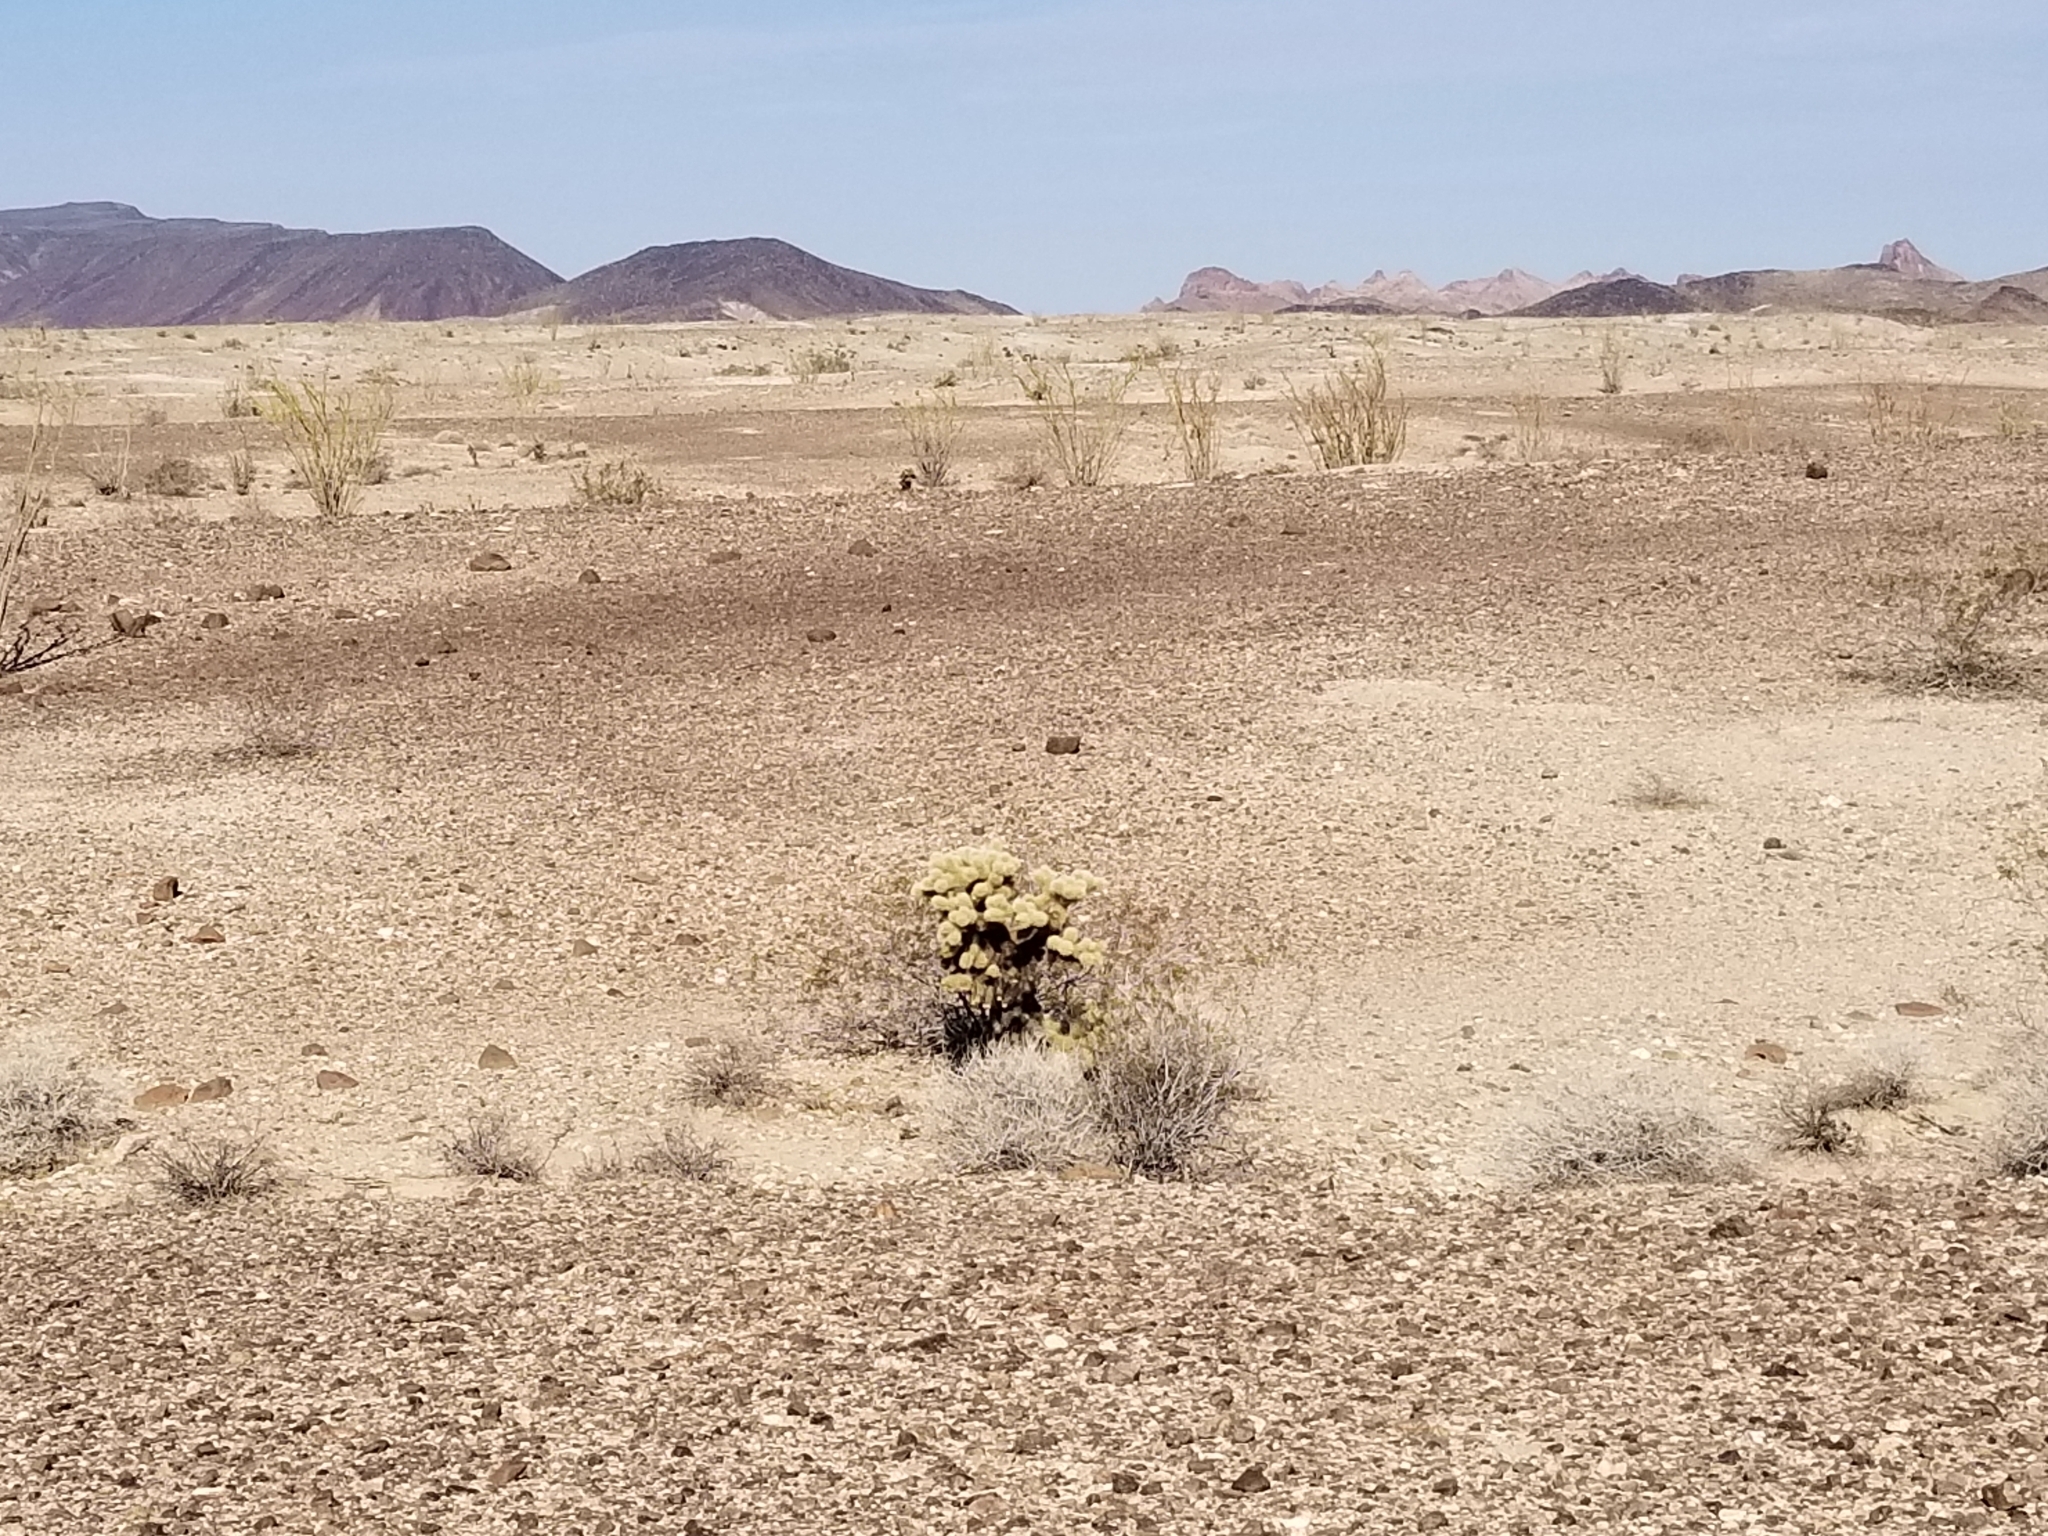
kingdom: Plantae
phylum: Tracheophyta
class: Magnoliopsida
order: Caryophyllales
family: Cactaceae
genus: Cylindropuntia
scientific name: Cylindropuntia fosbergii
